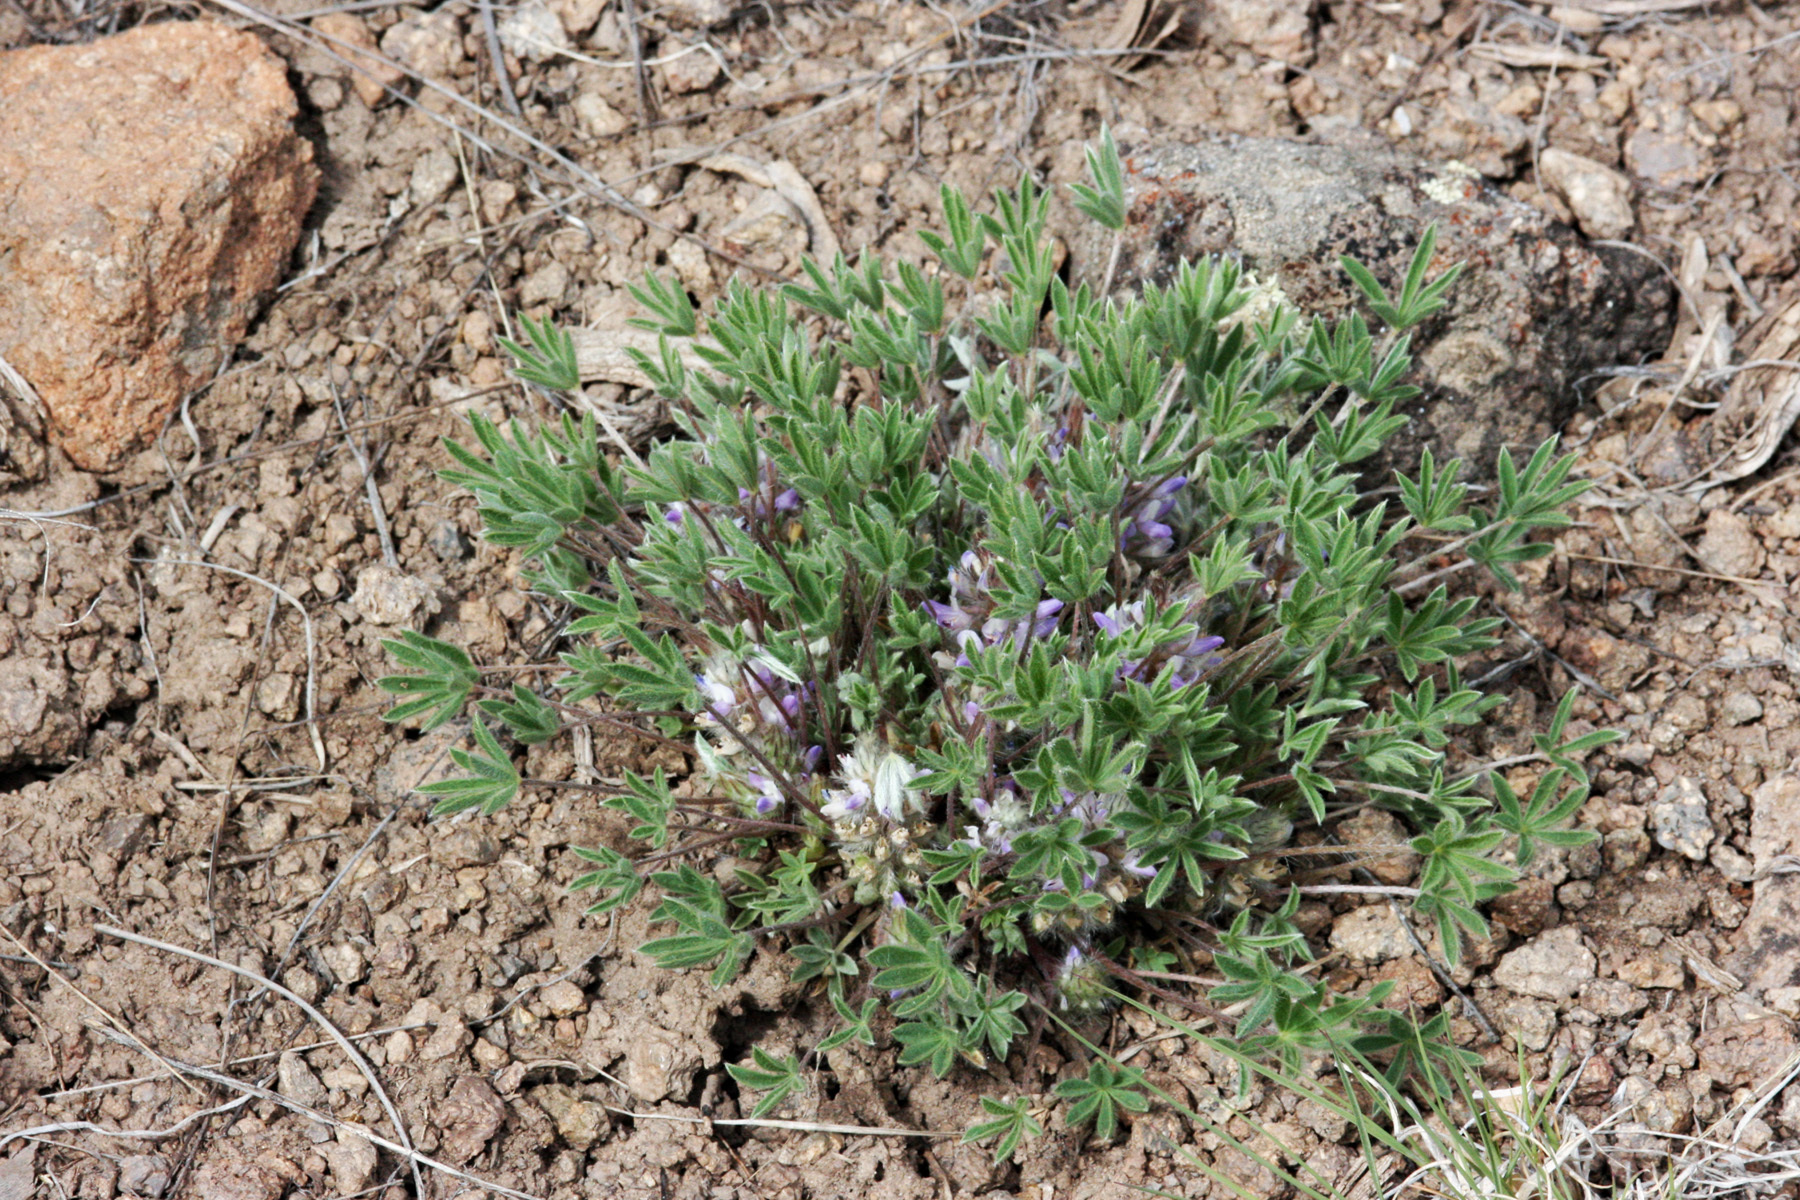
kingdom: Plantae
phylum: Tracheophyta
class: Magnoliopsida
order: Fabales
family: Fabaceae
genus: Lupinus
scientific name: Lupinus caespitosus
